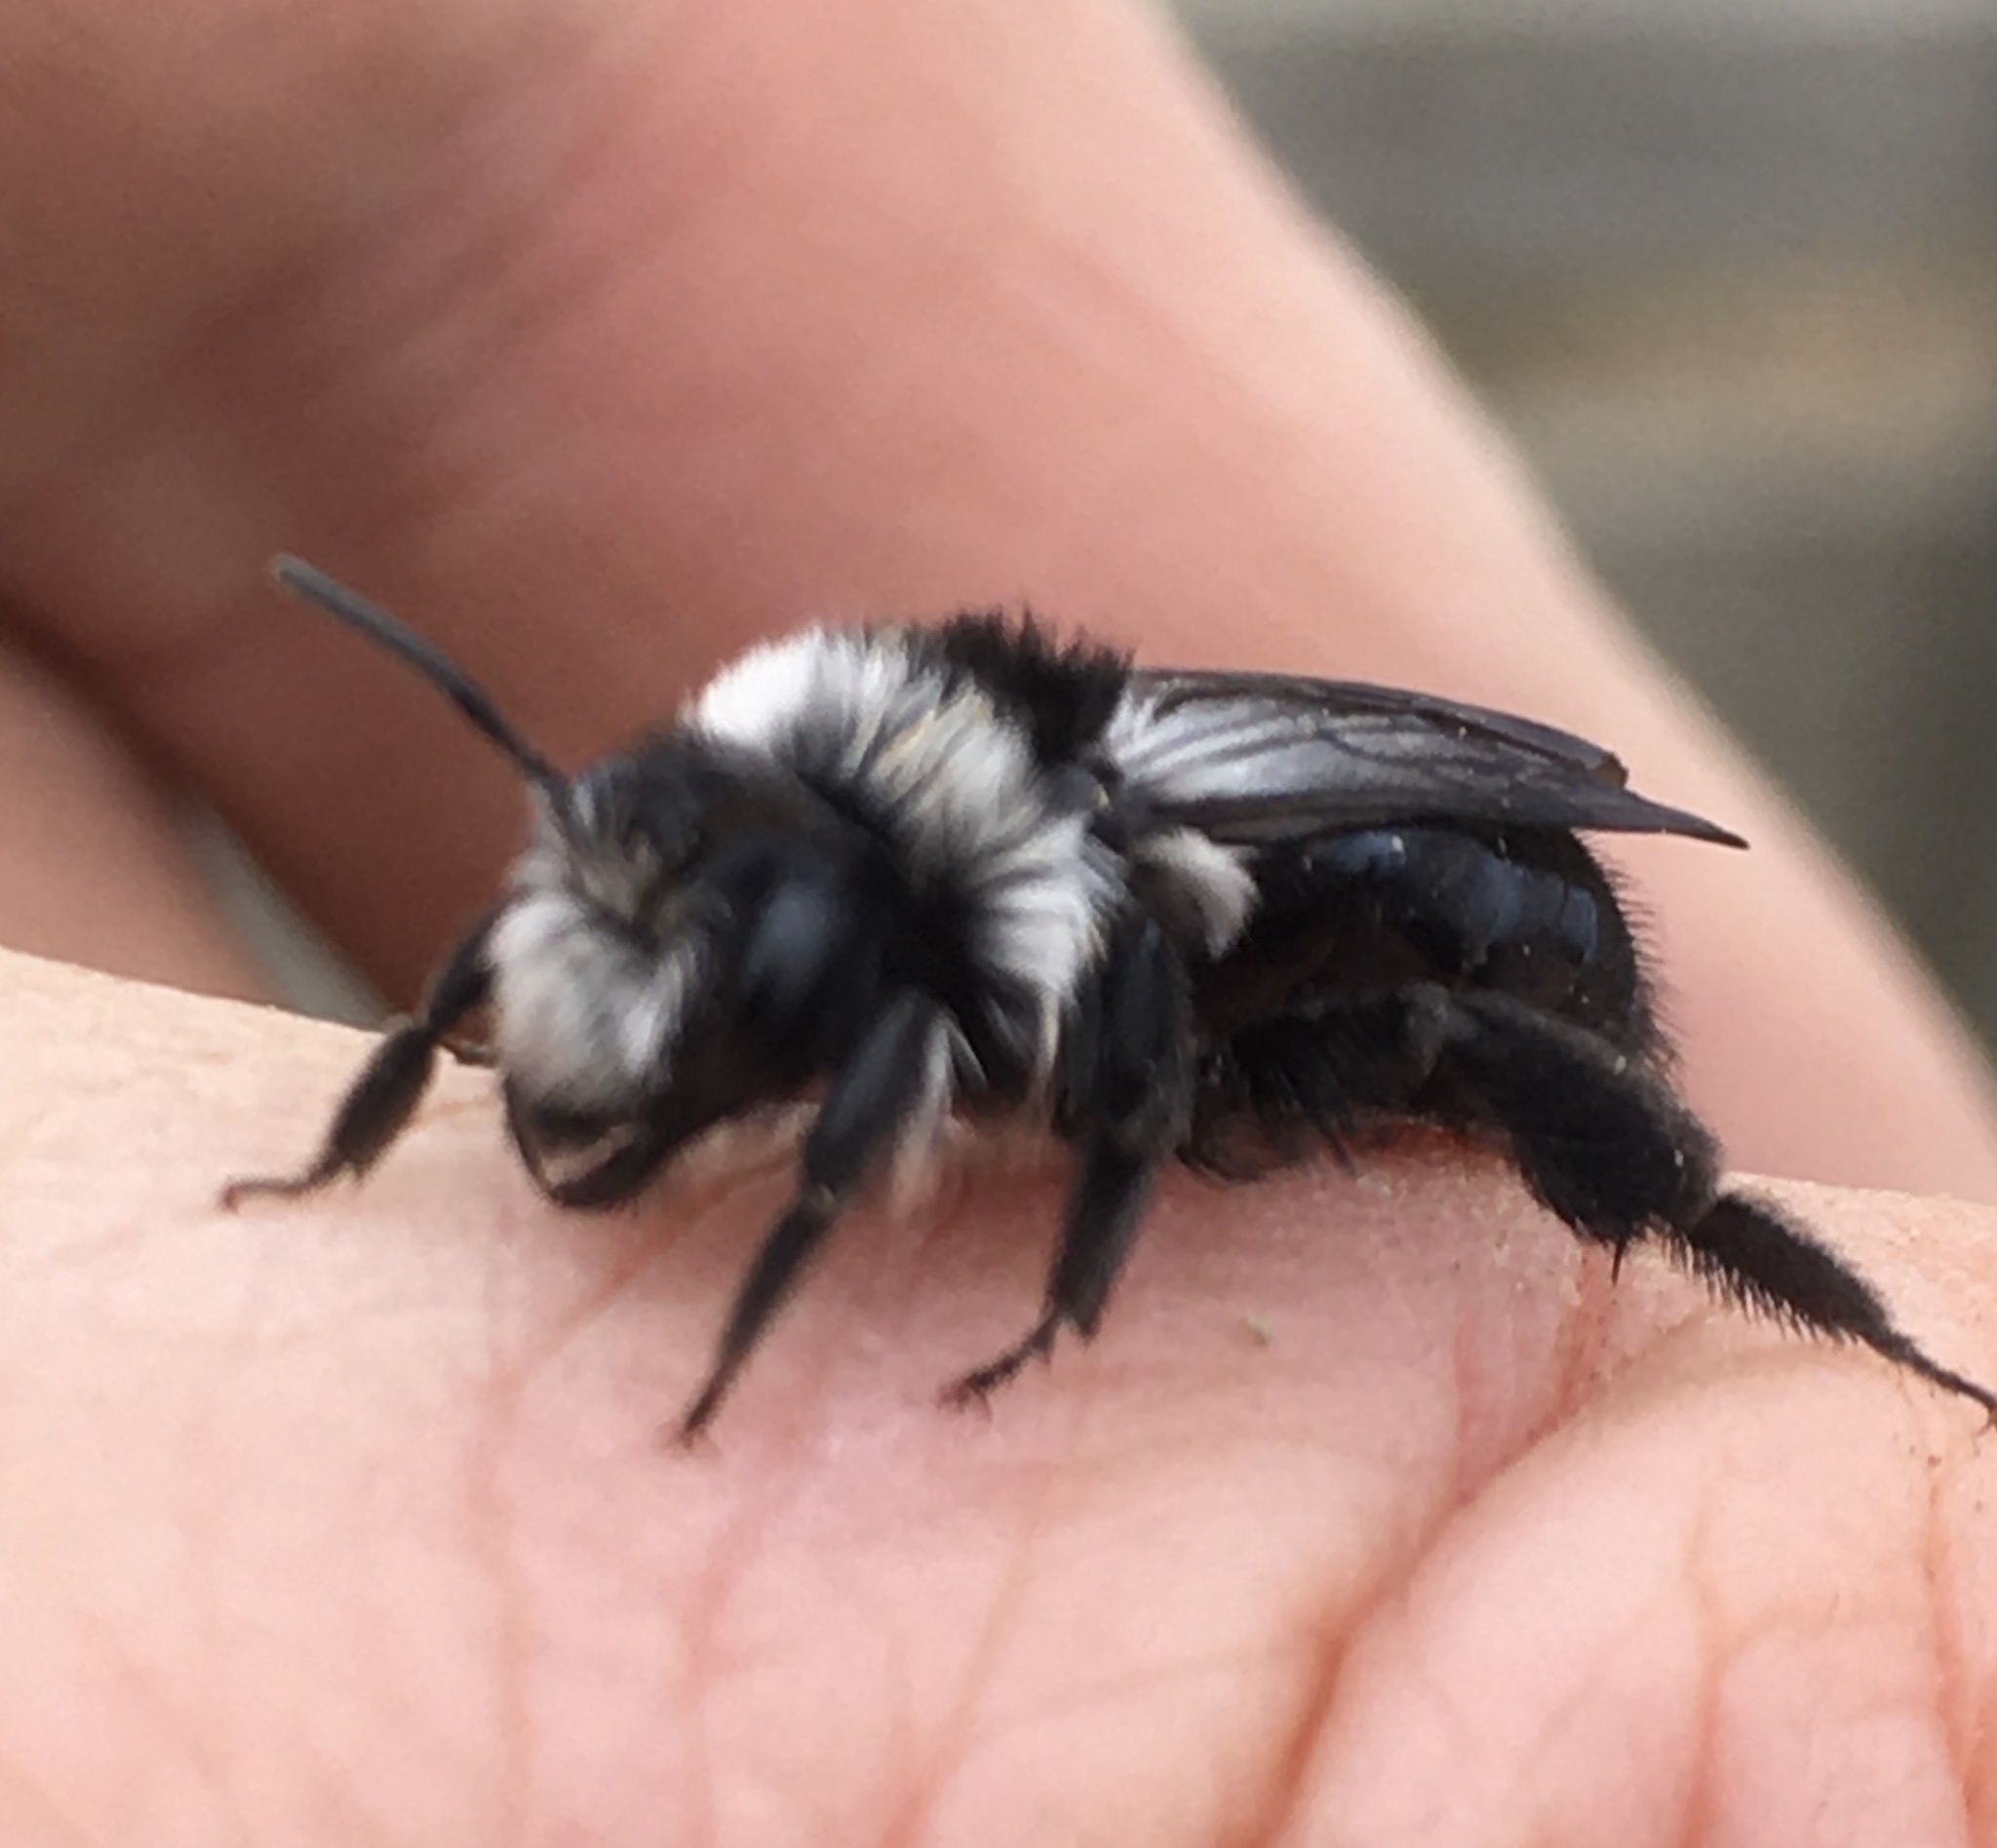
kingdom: Animalia
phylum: Arthropoda
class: Insecta
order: Hymenoptera
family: Andrenidae
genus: Andrena
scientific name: Andrena cineraria
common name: Ashy mining bee
